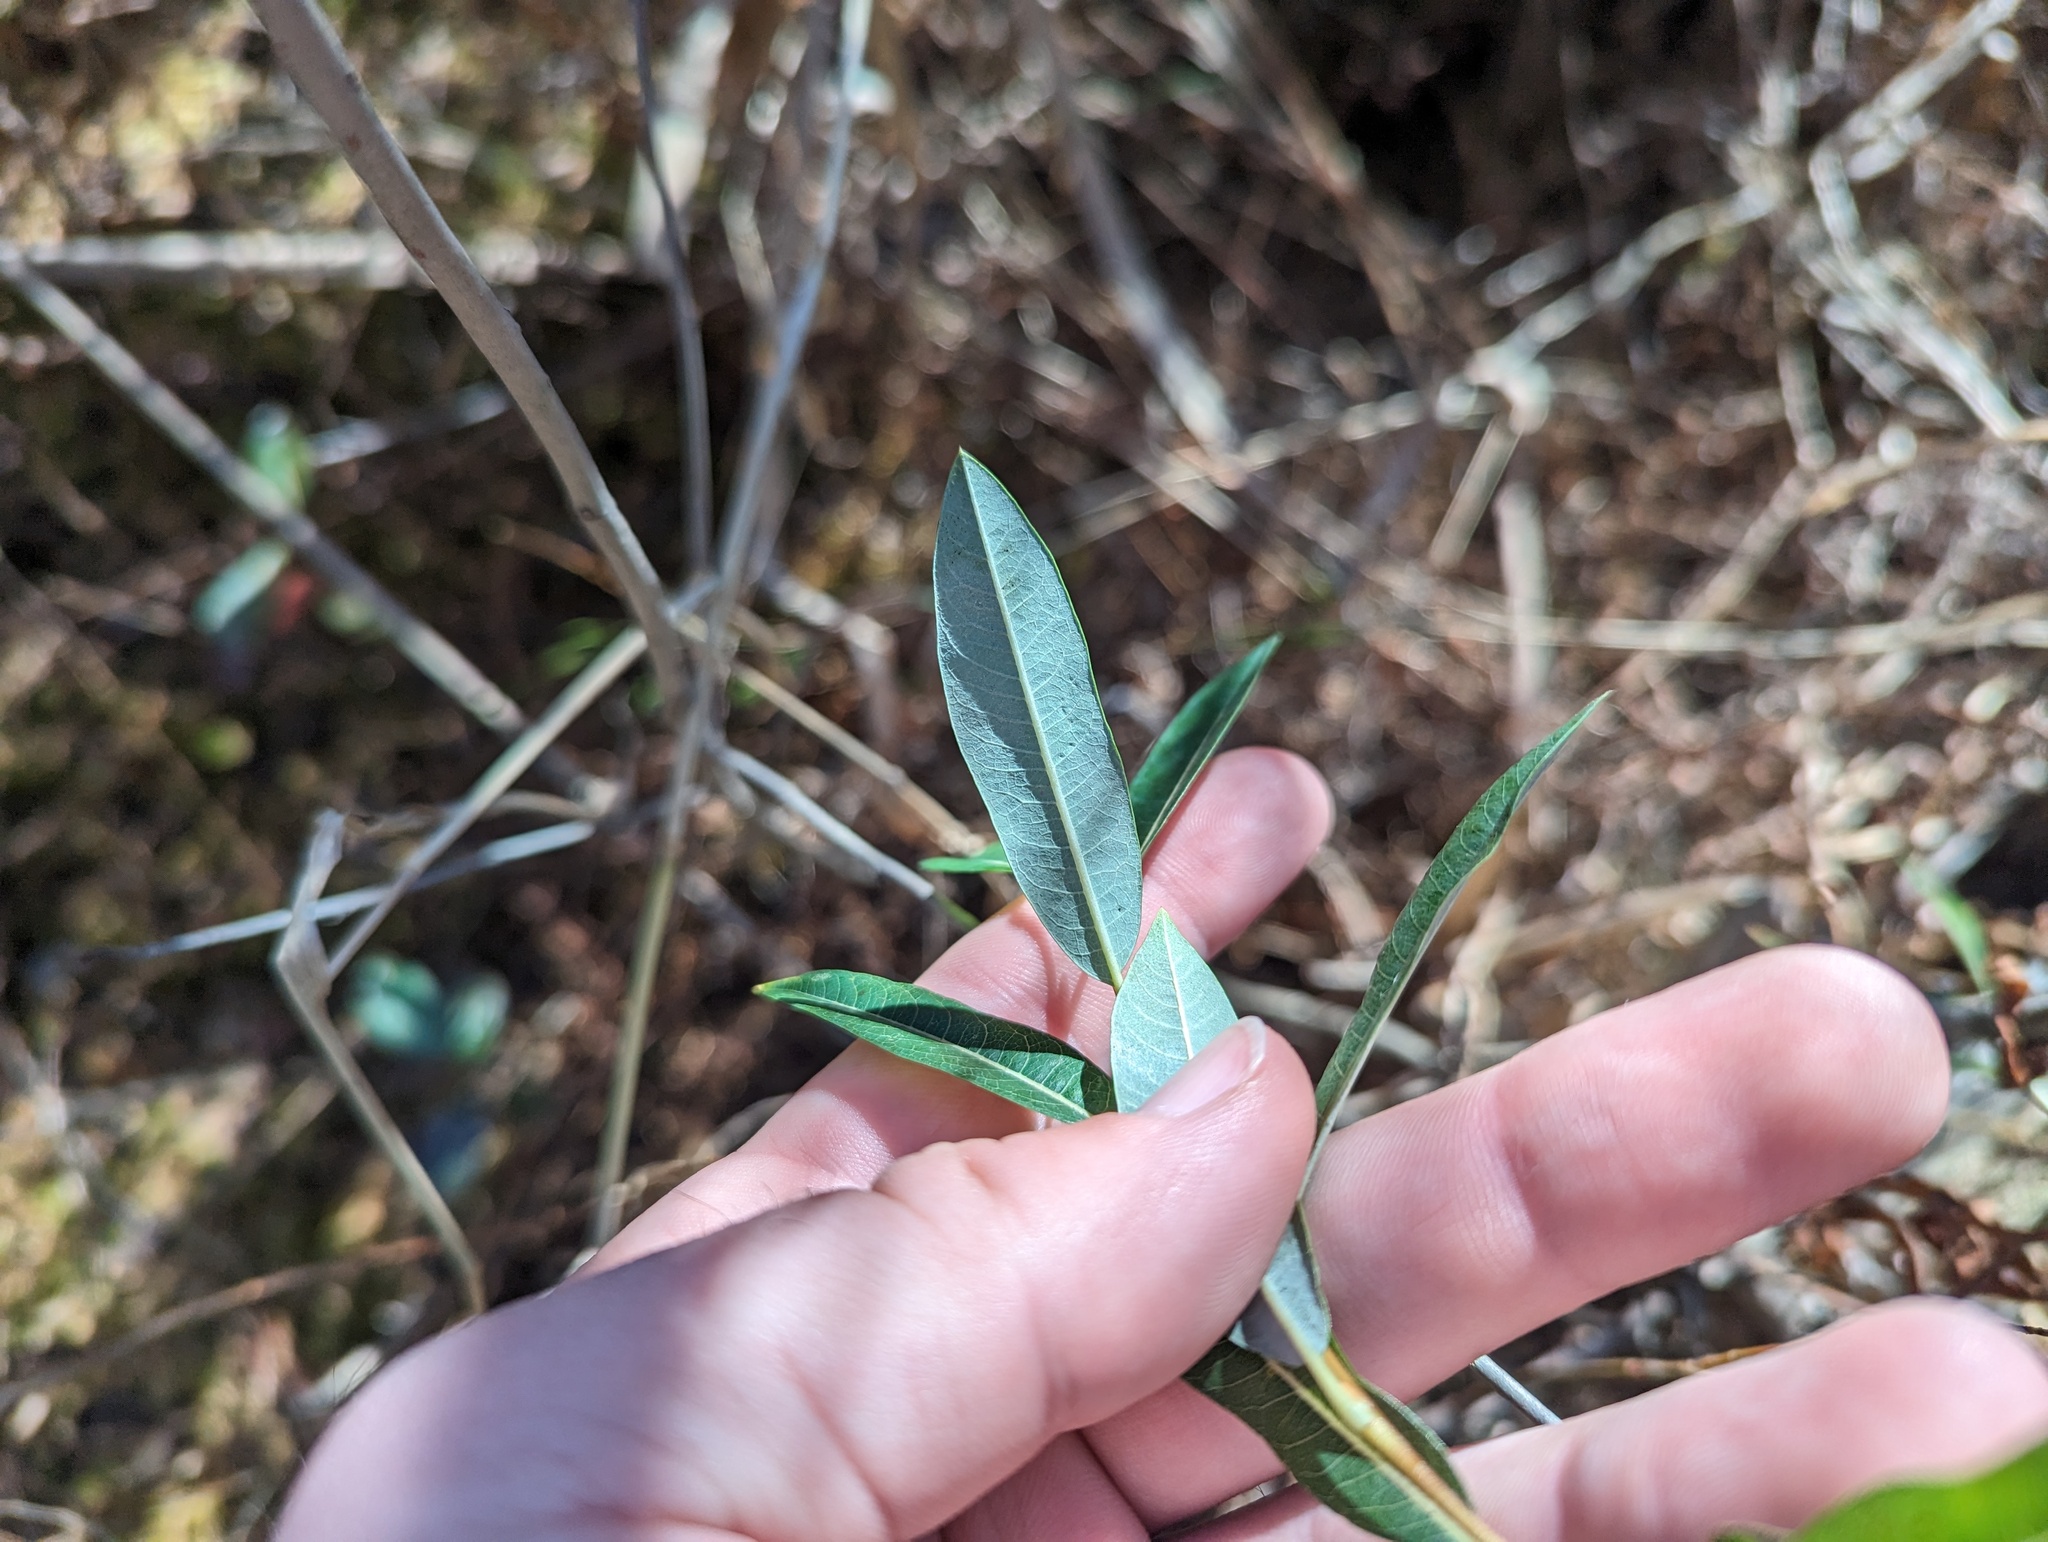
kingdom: Plantae
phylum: Tracheophyta
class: Magnoliopsida
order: Malpighiales
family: Salicaceae
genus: Salix
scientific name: Salix pedicellaris
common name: Bog willow
